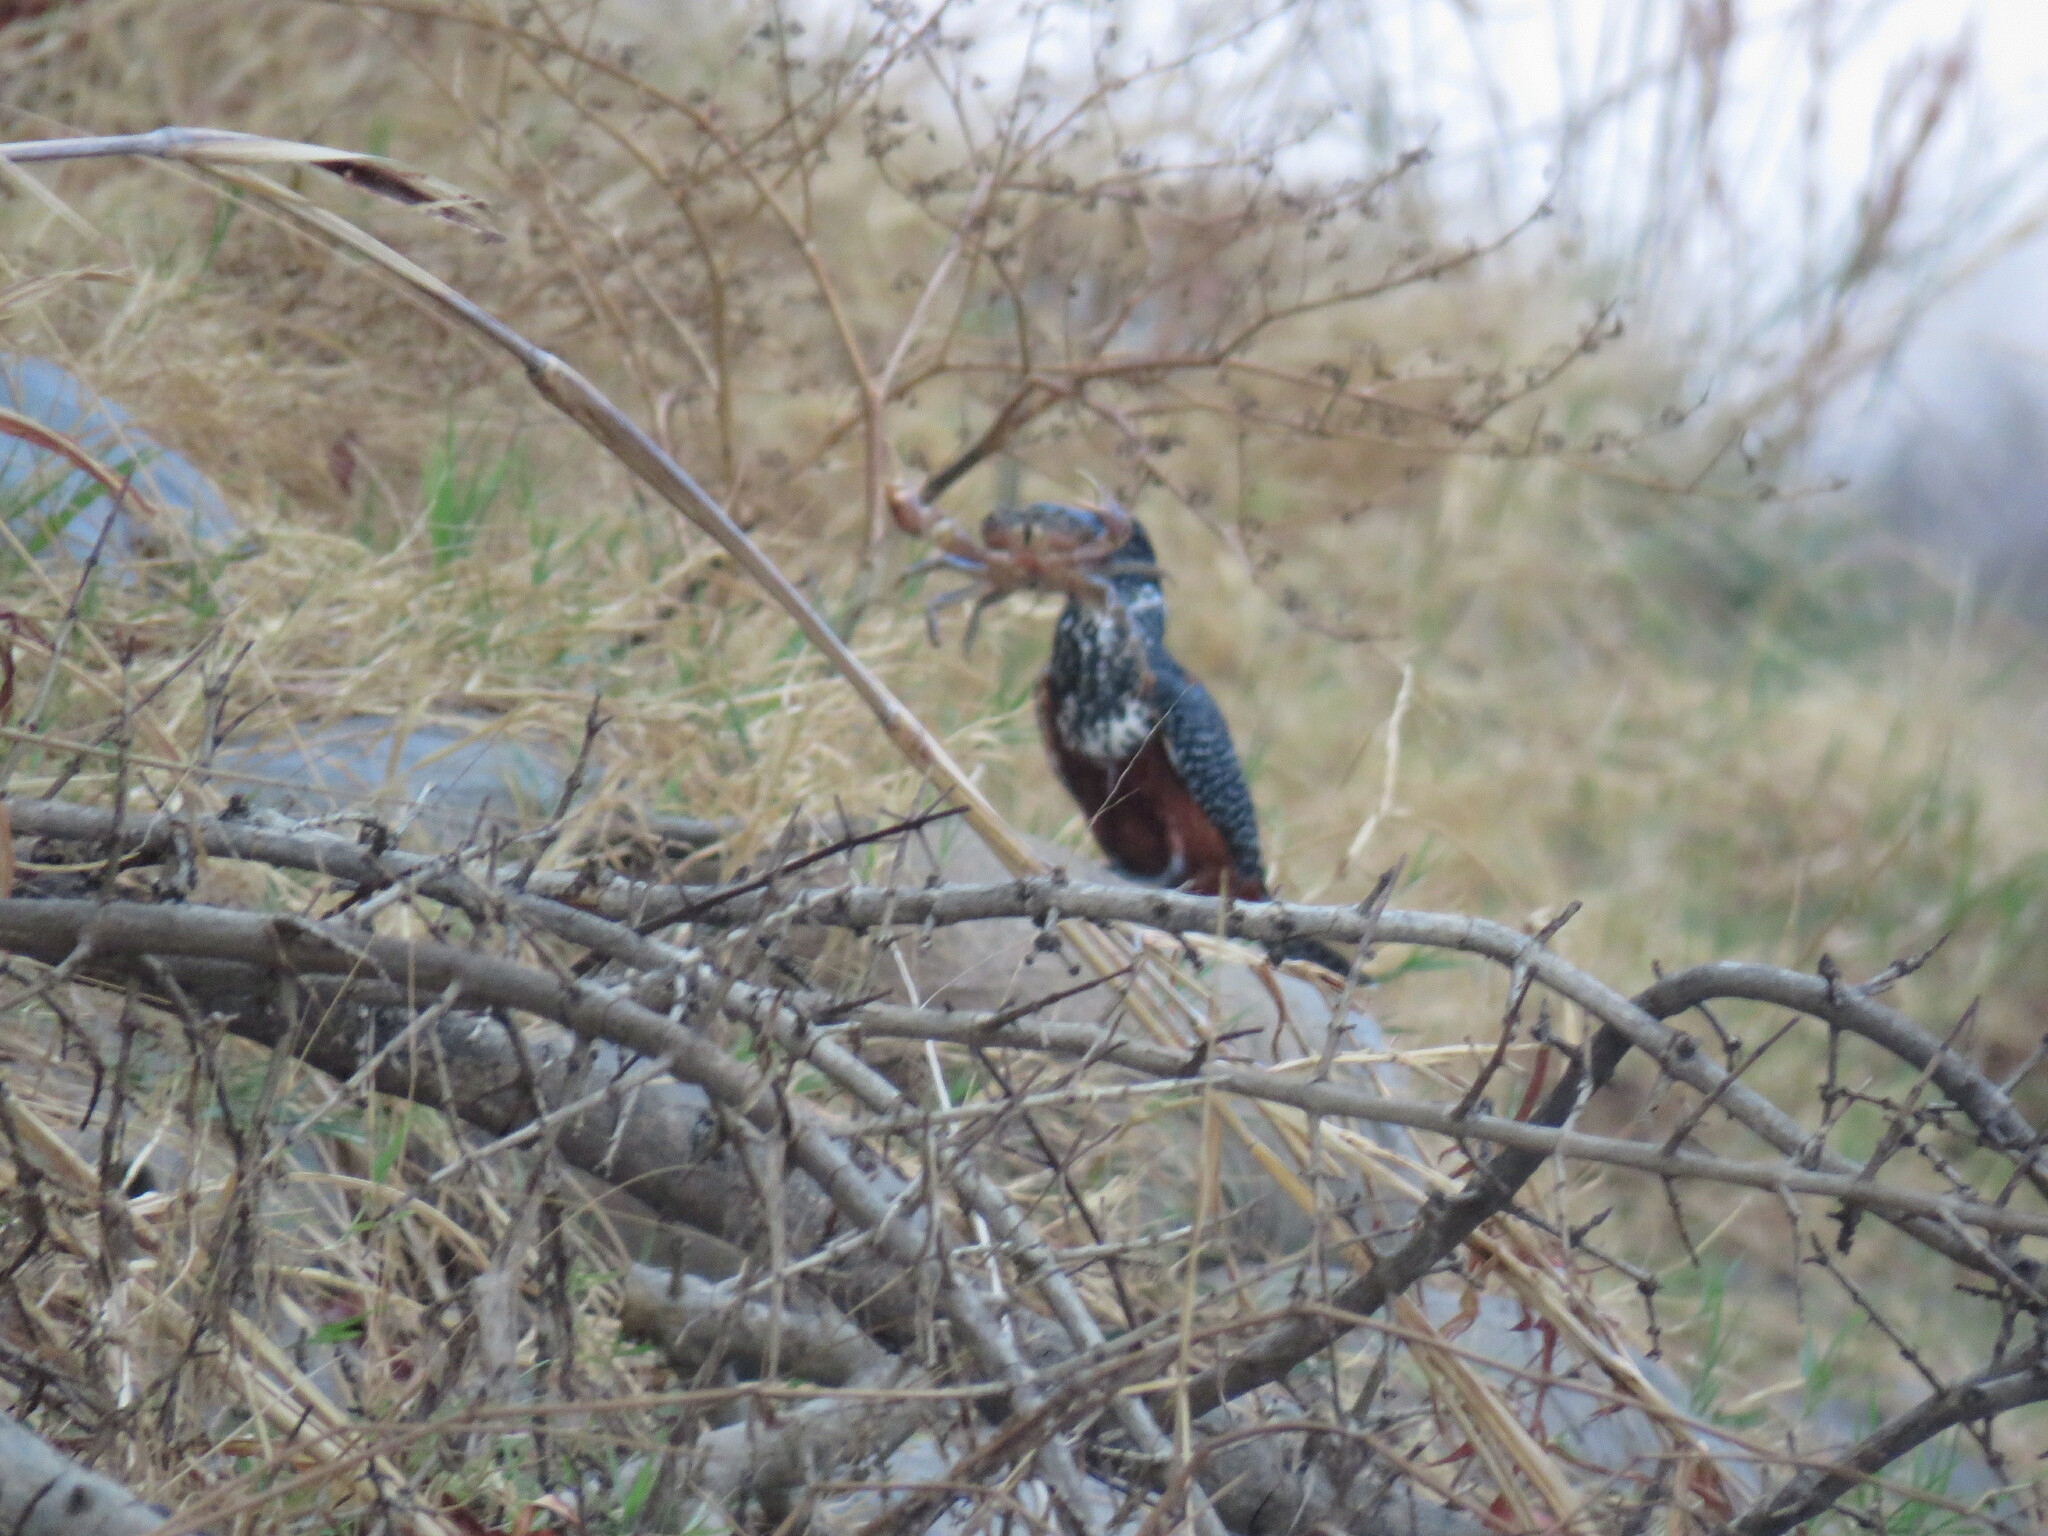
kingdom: Animalia
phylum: Chordata
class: Aves
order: Coraciiformes
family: Alcedinidae
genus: Megaceryle
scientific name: Megaceryle maxima
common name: Giant kingfisher
